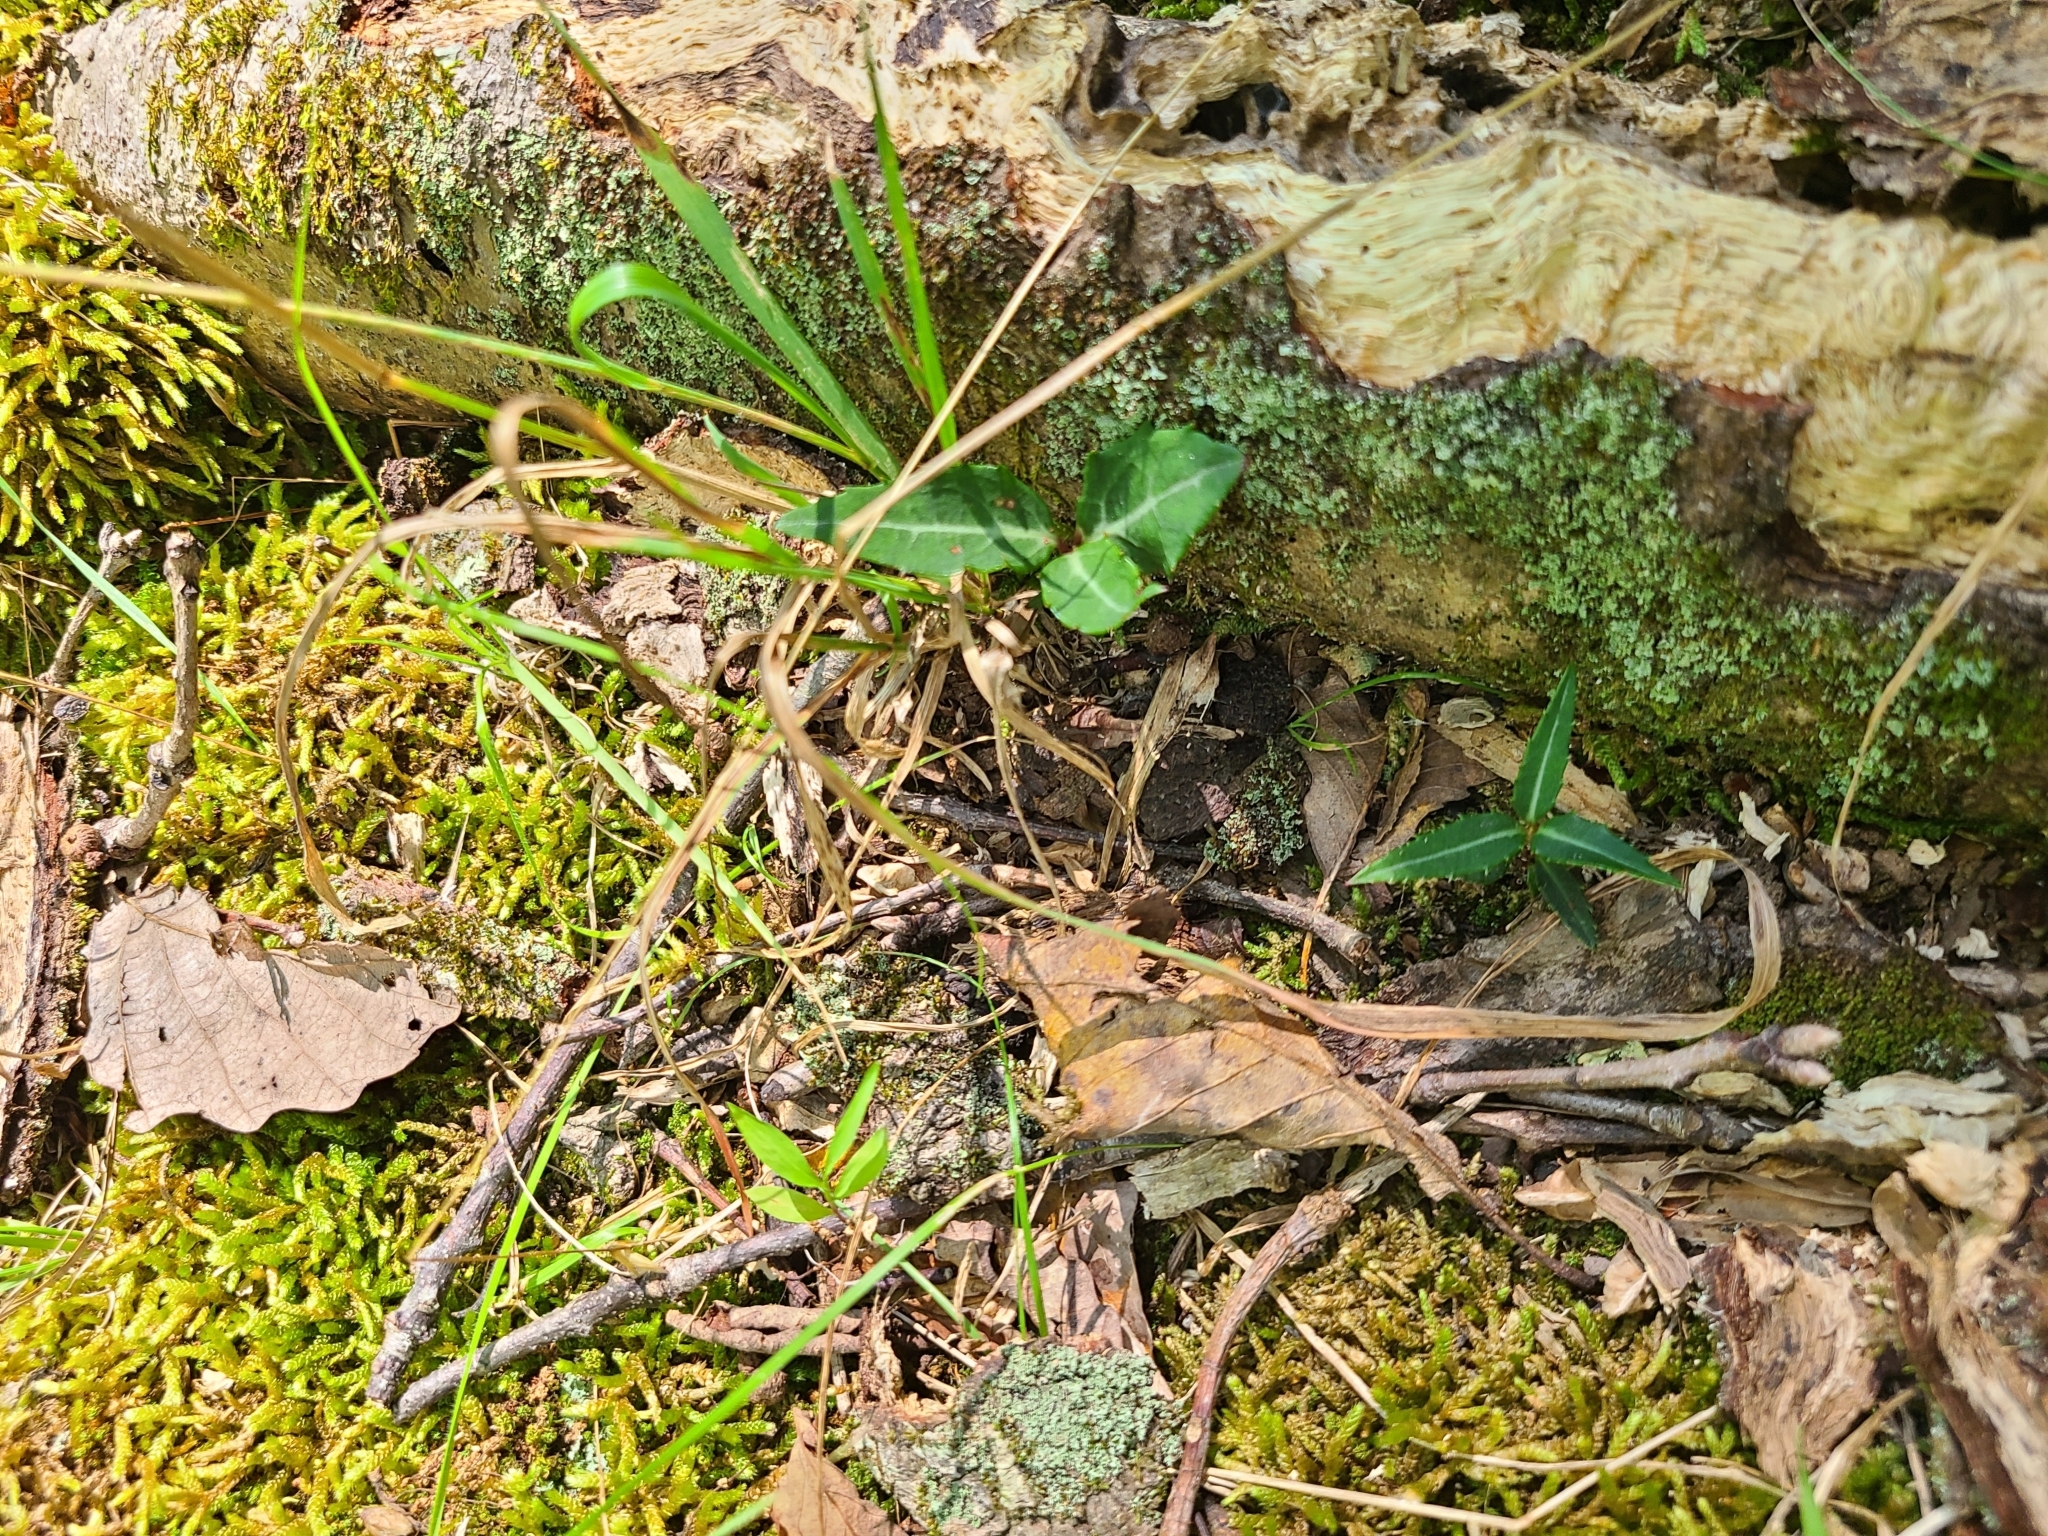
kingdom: Plantae
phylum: Tracheophyta
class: Magnoliopsida
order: Ericales
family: Ericaceae
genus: Chimaphila
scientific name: Chimaphila maculata
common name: Spotted pipsissewa
